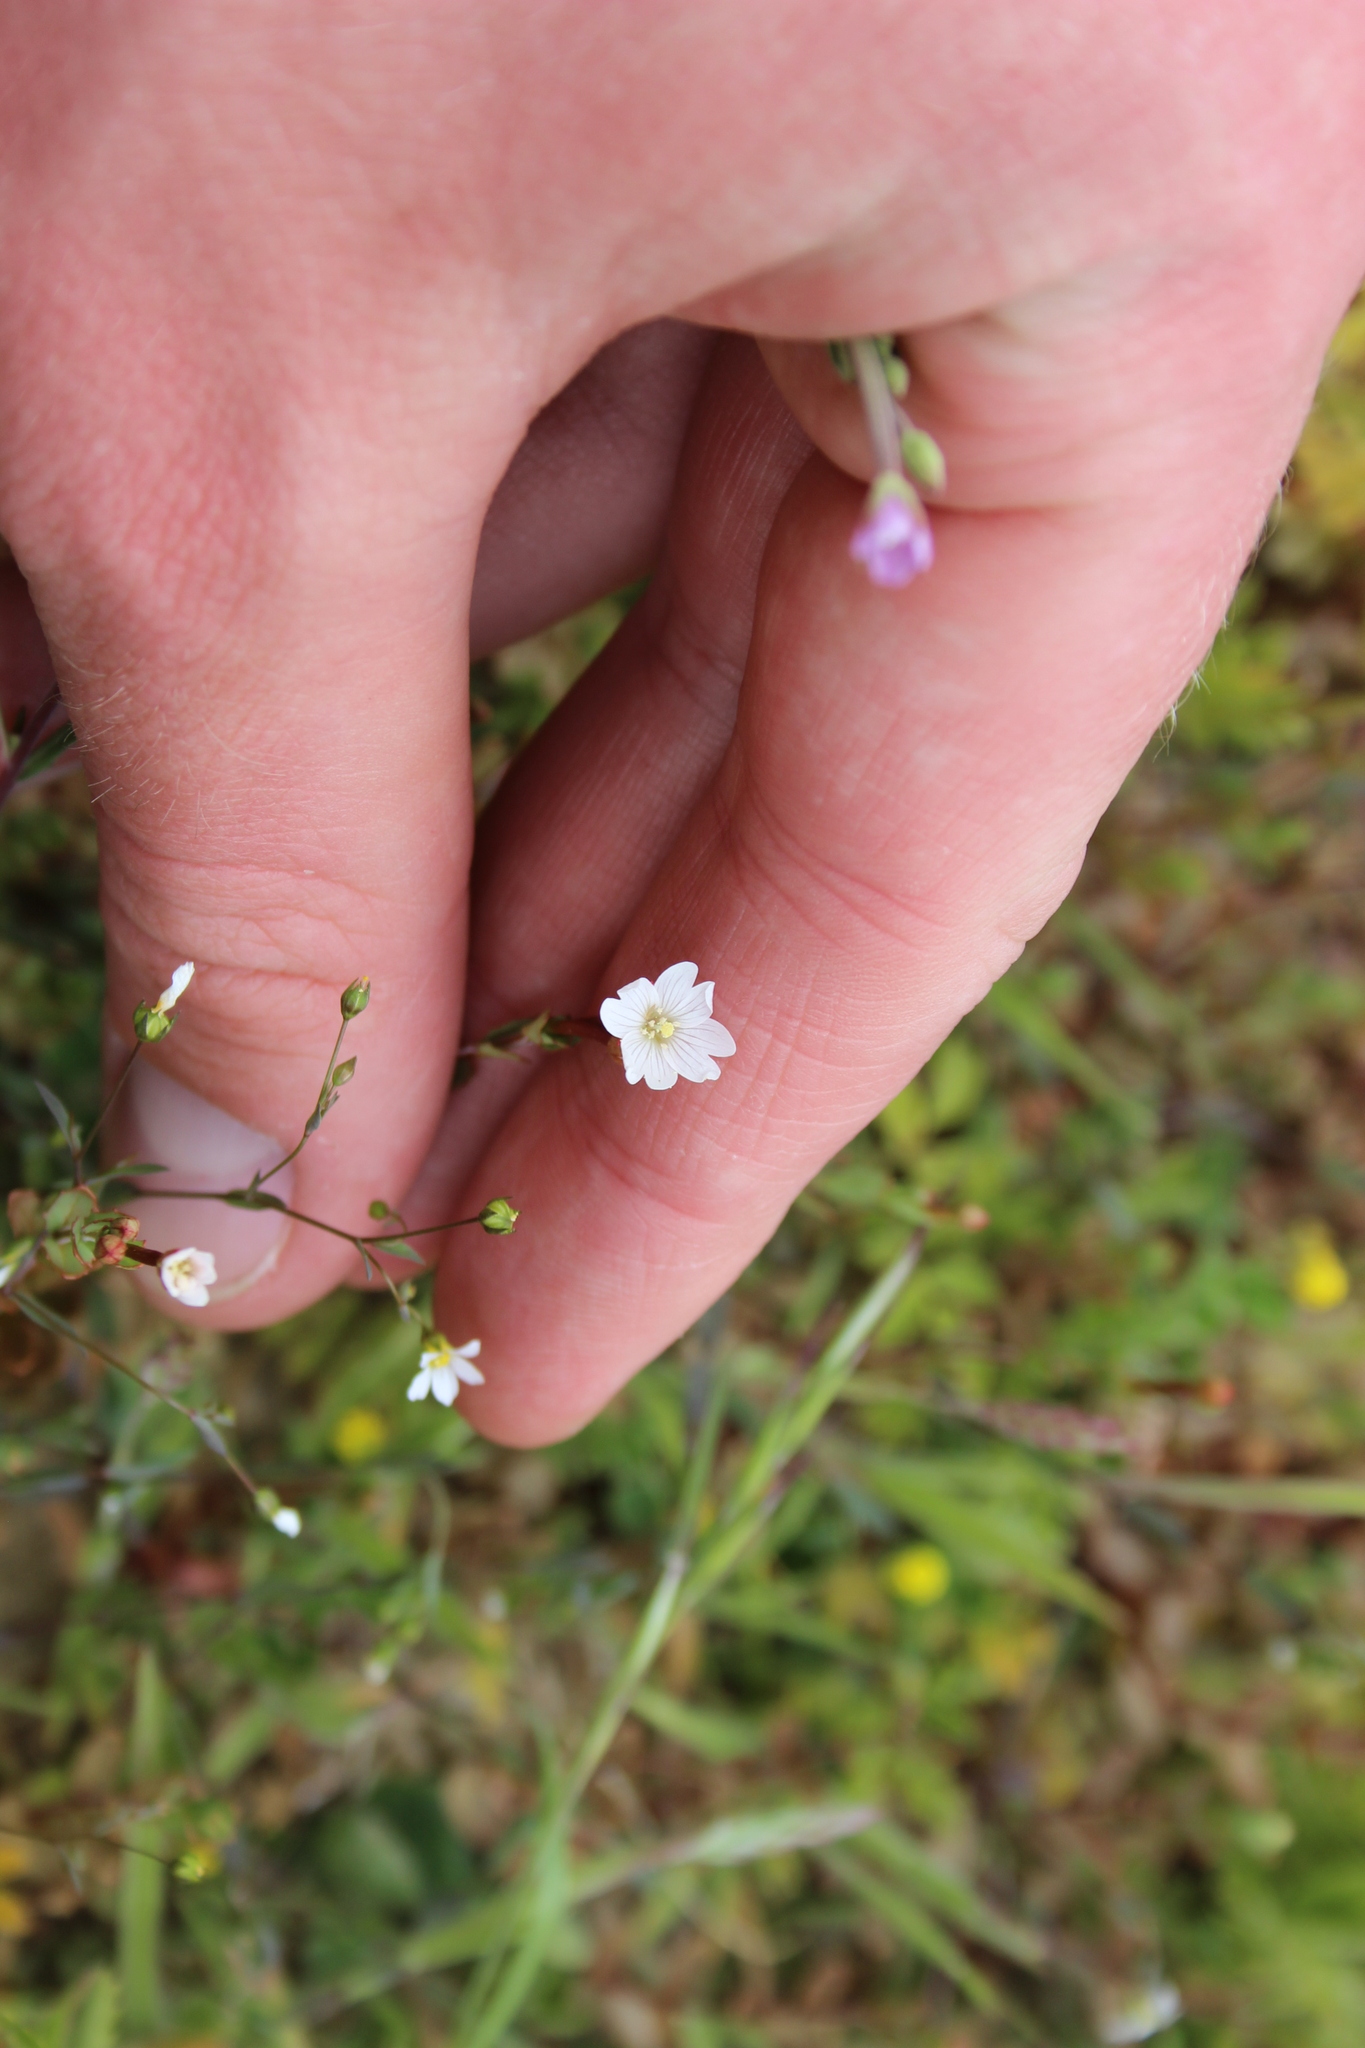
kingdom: Plantae
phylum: Tracheophyta
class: Magnoliopsida
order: Myrtales
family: Onagraceae
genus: Epilobium
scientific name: Epilobium alsinoides
